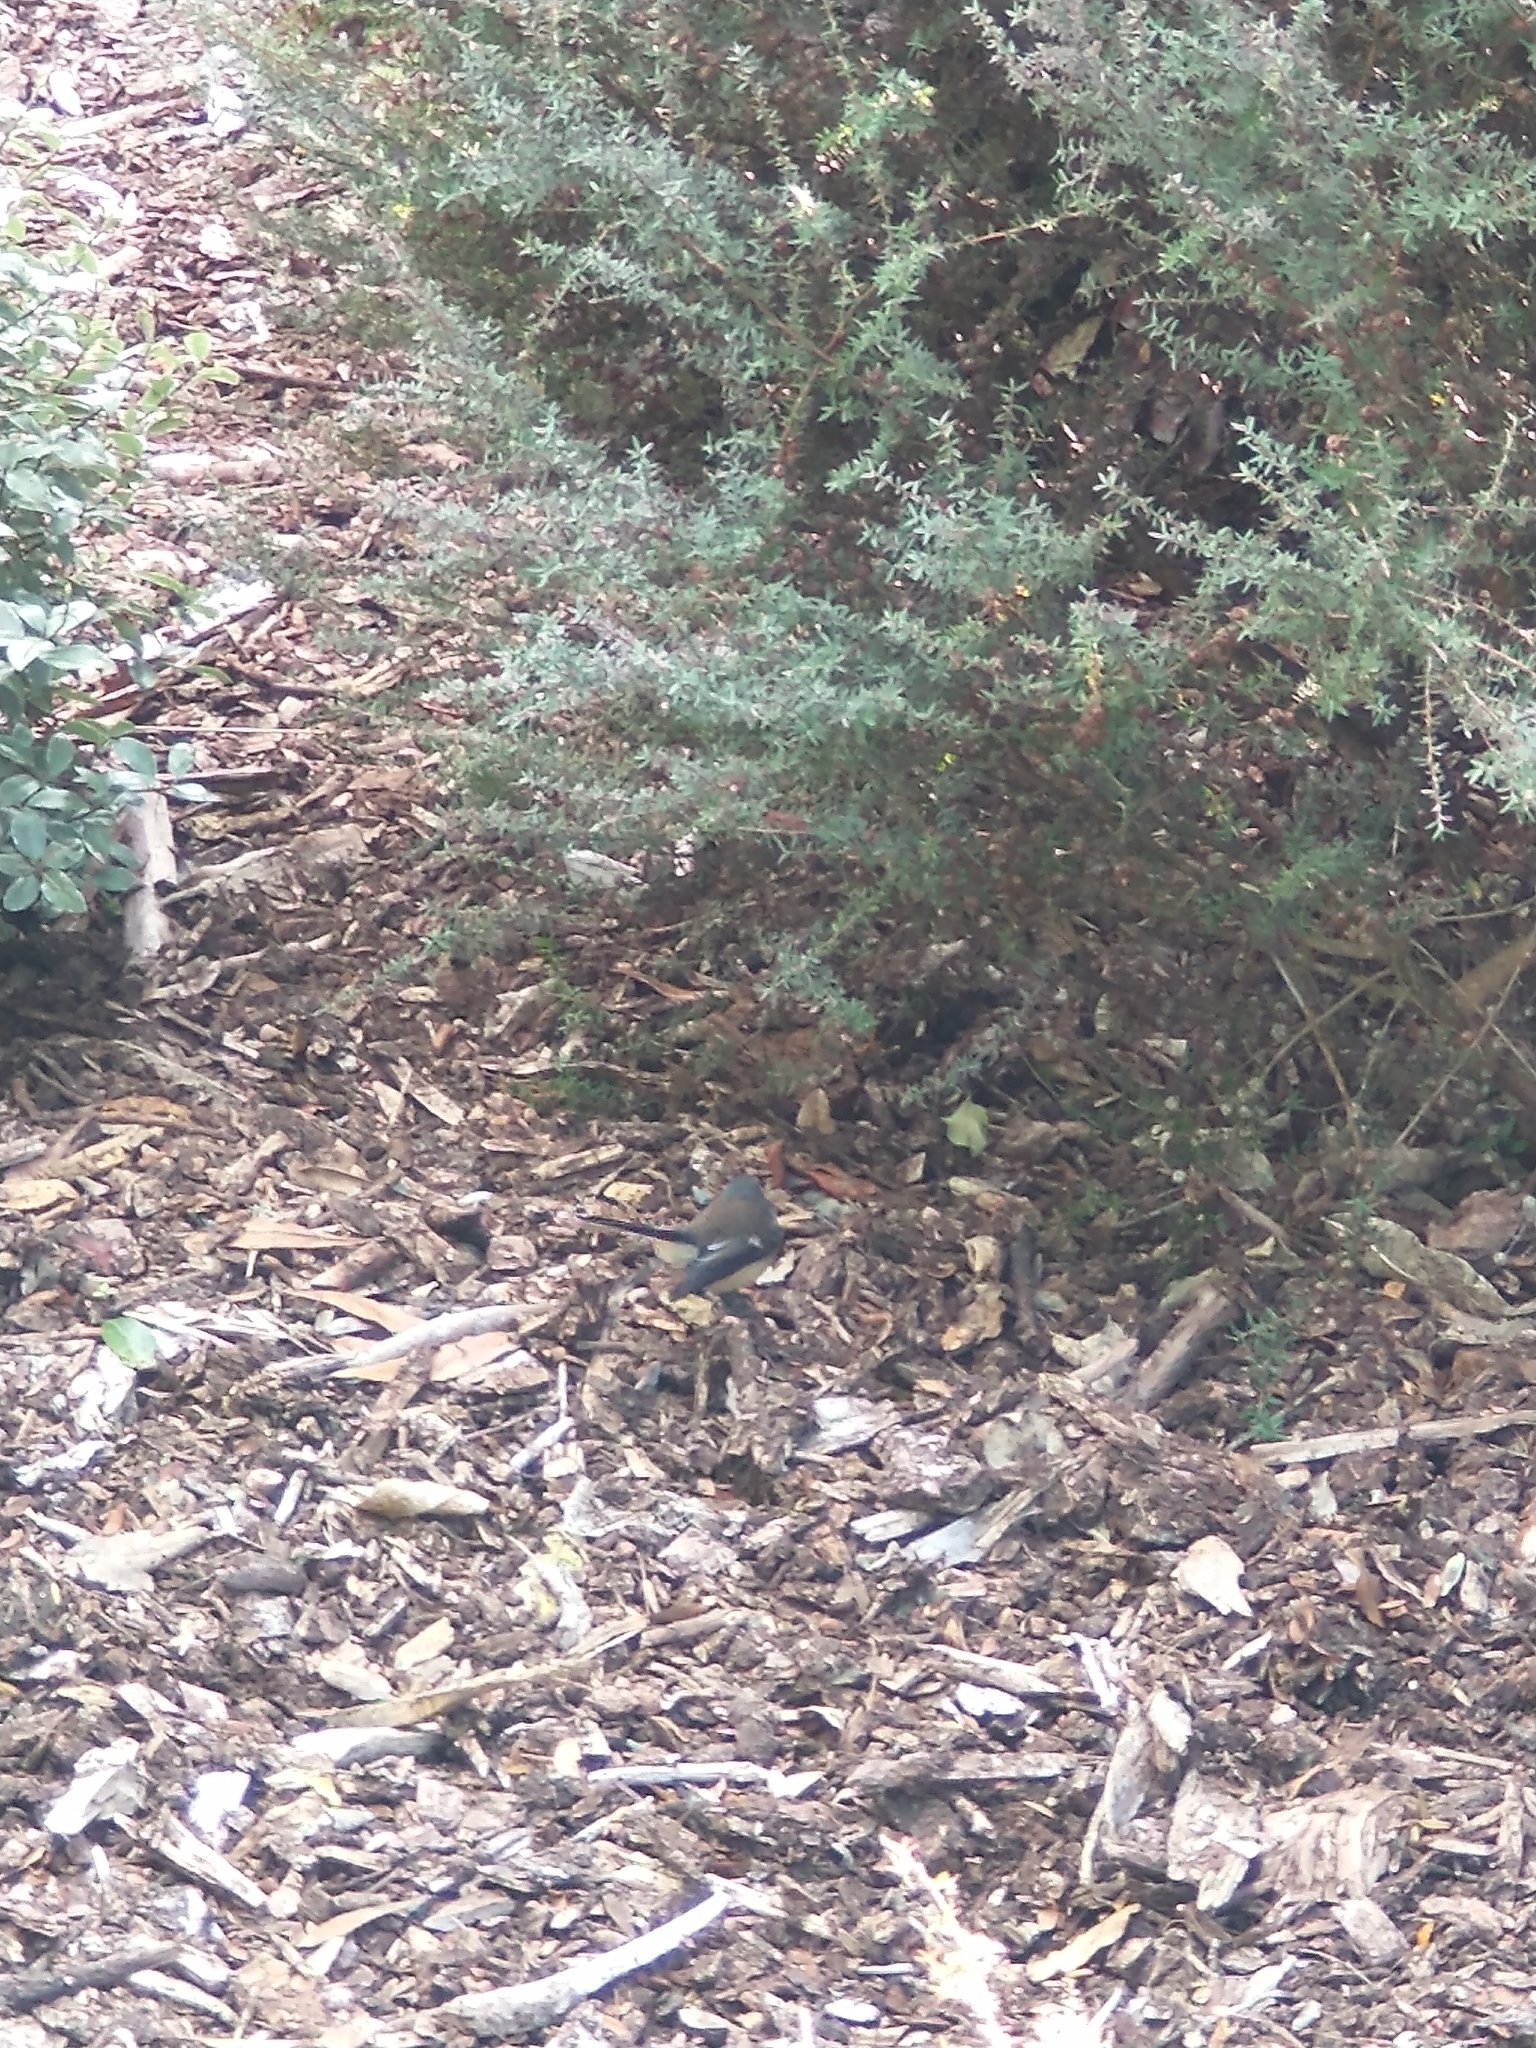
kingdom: Animalia
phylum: Chordata
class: Aves
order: Passeriformes
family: Rhipiduridae
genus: Rhipidura
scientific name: Rhipidura fuliginosa
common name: New zealand fantail
